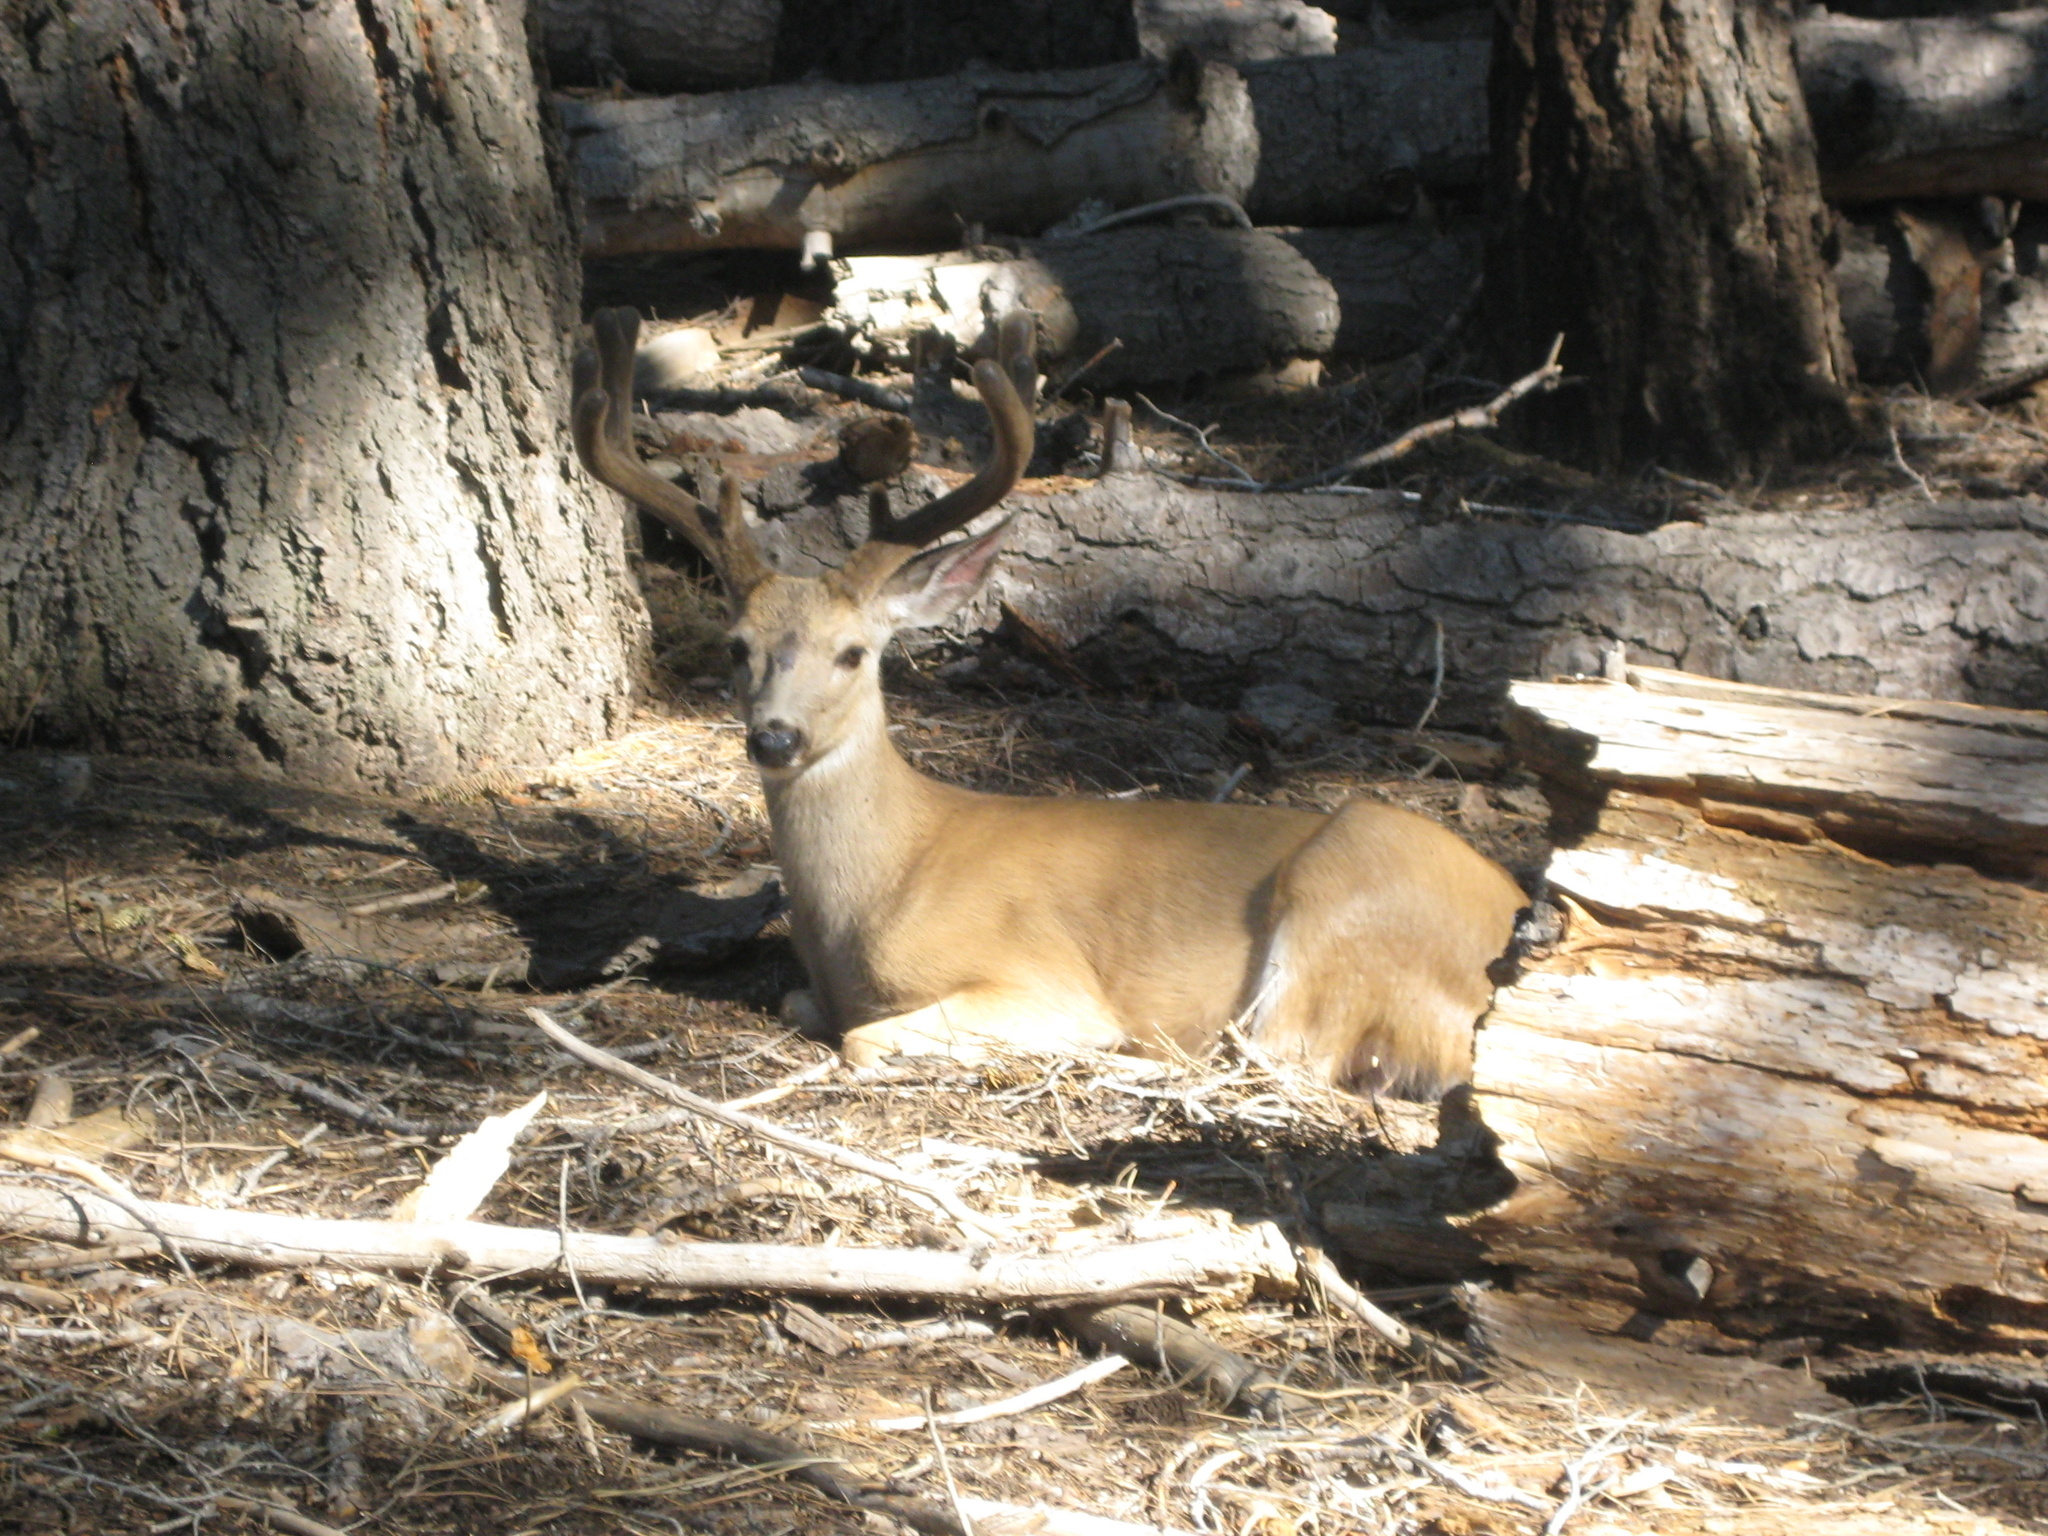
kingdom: Animalia
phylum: Chordata
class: Mammalia
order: Artiodactyla
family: Cervidae
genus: Odocoileus
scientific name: Odocoileus hemionus
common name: Mule deer
